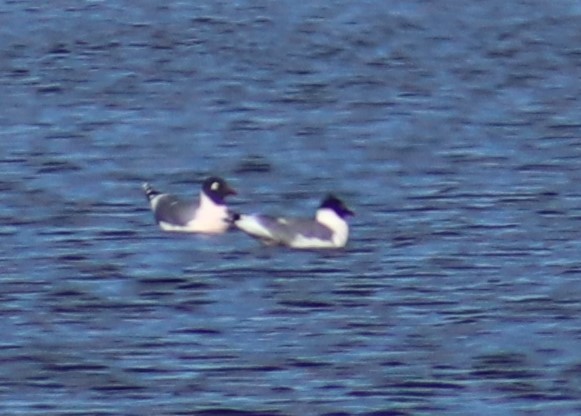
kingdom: Animalia
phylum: Chordata
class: Aves
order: Charadriiformes
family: Laridae
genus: Leucophaeus
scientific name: Leucophaeus pipixcan
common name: Franklin's gull
